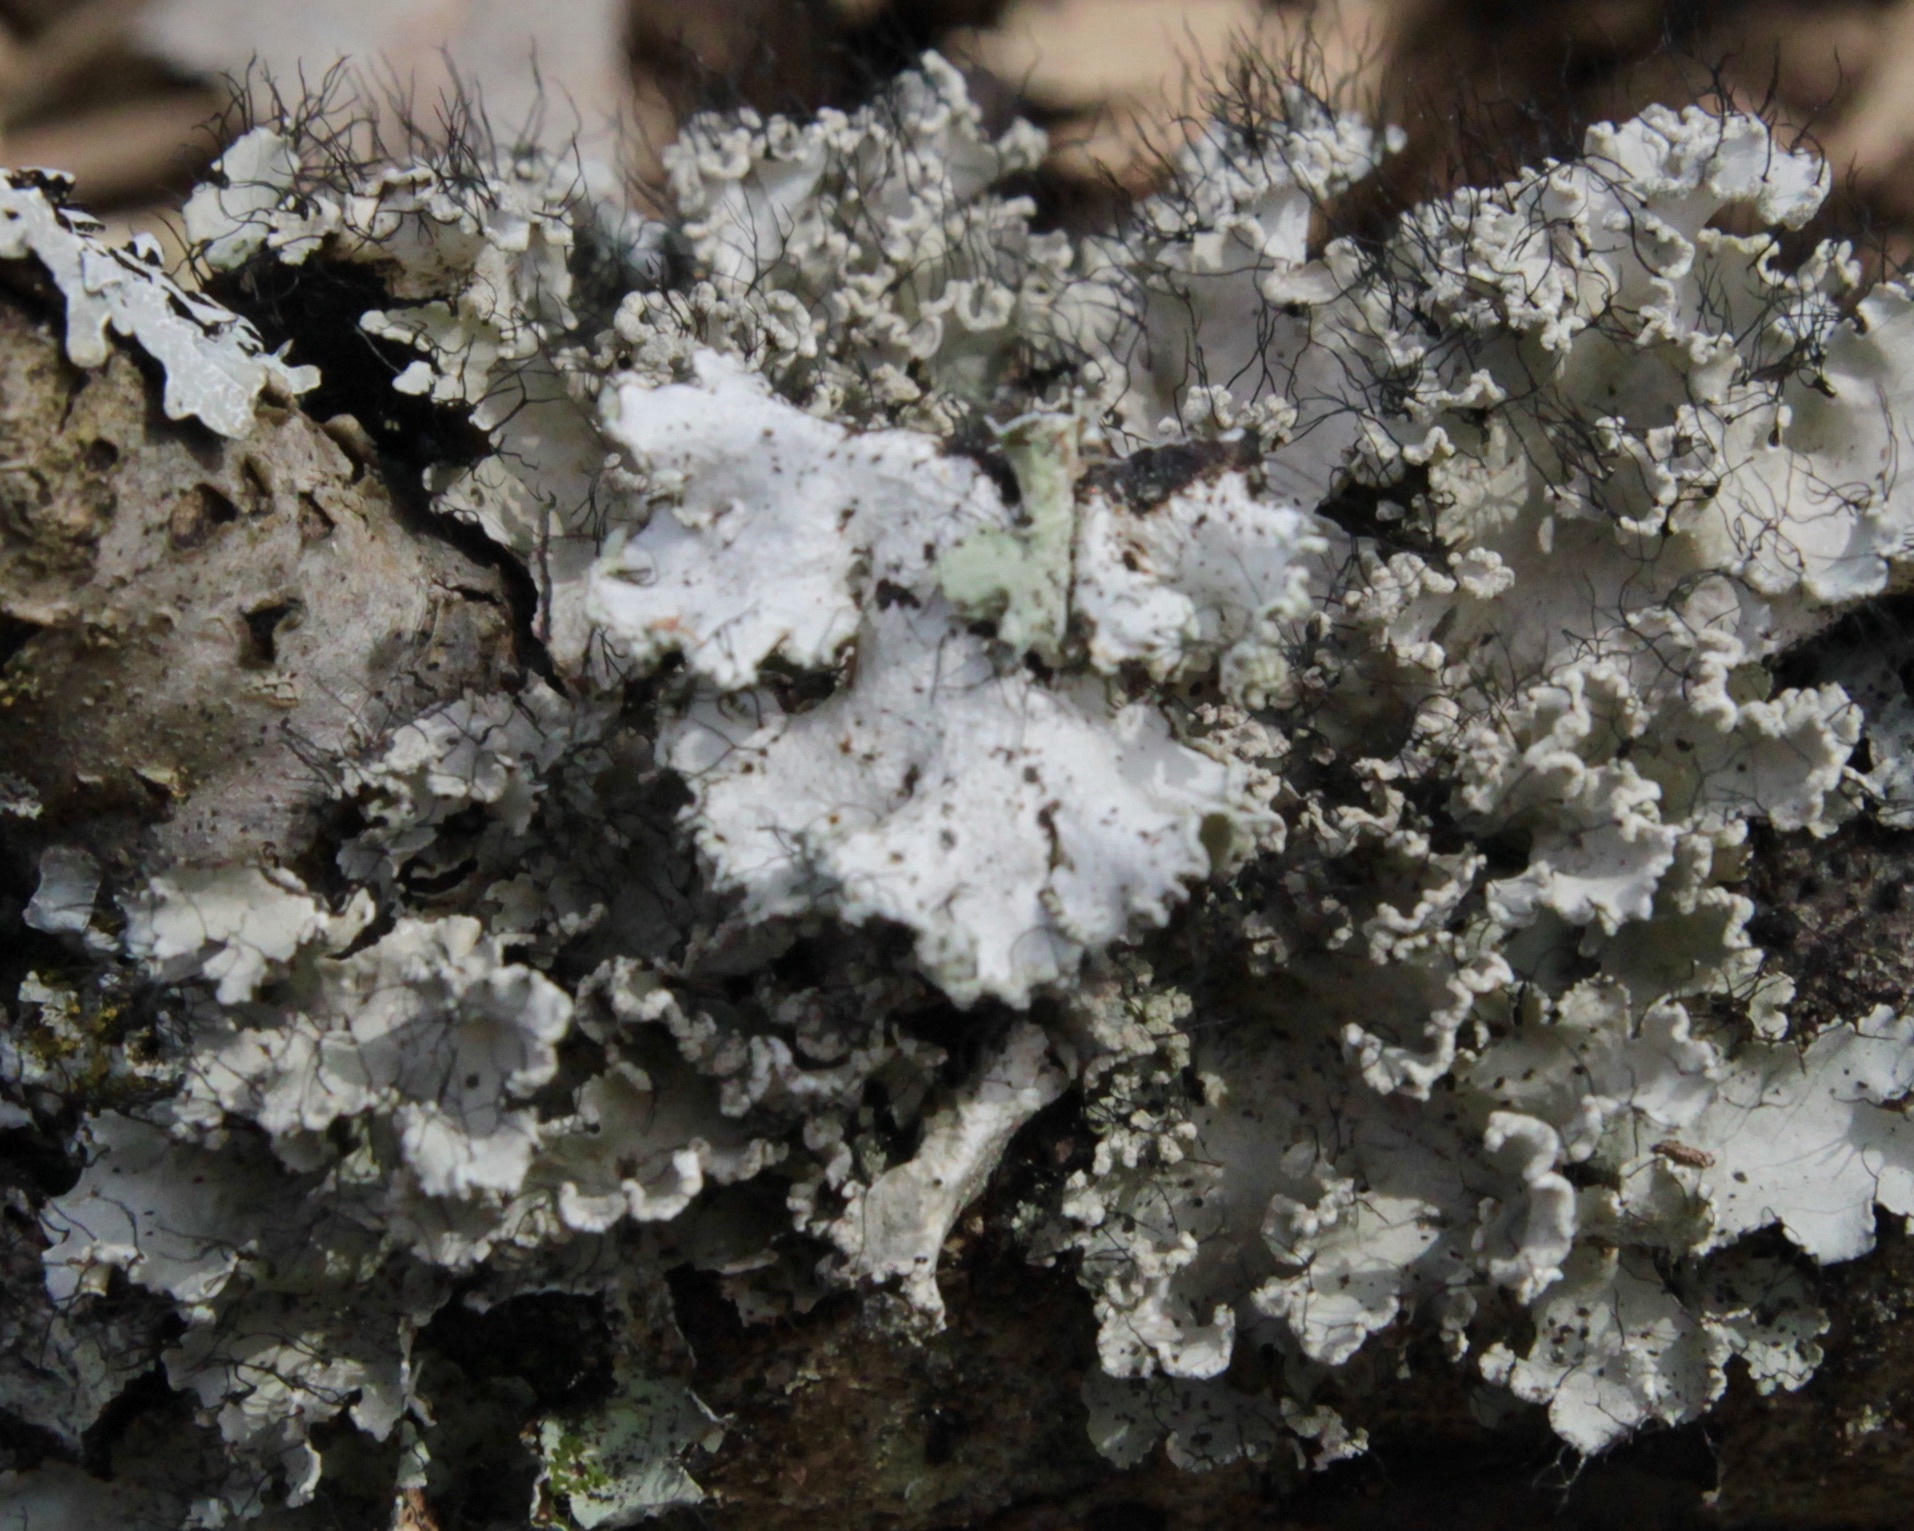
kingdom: Fungi
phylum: Ascomycota
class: Lecanoromycetes
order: Lecanorales
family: Parmeliaceae
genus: Parmotrema
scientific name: Parmotrema hypotropum
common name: Powdered ruffle lichen
